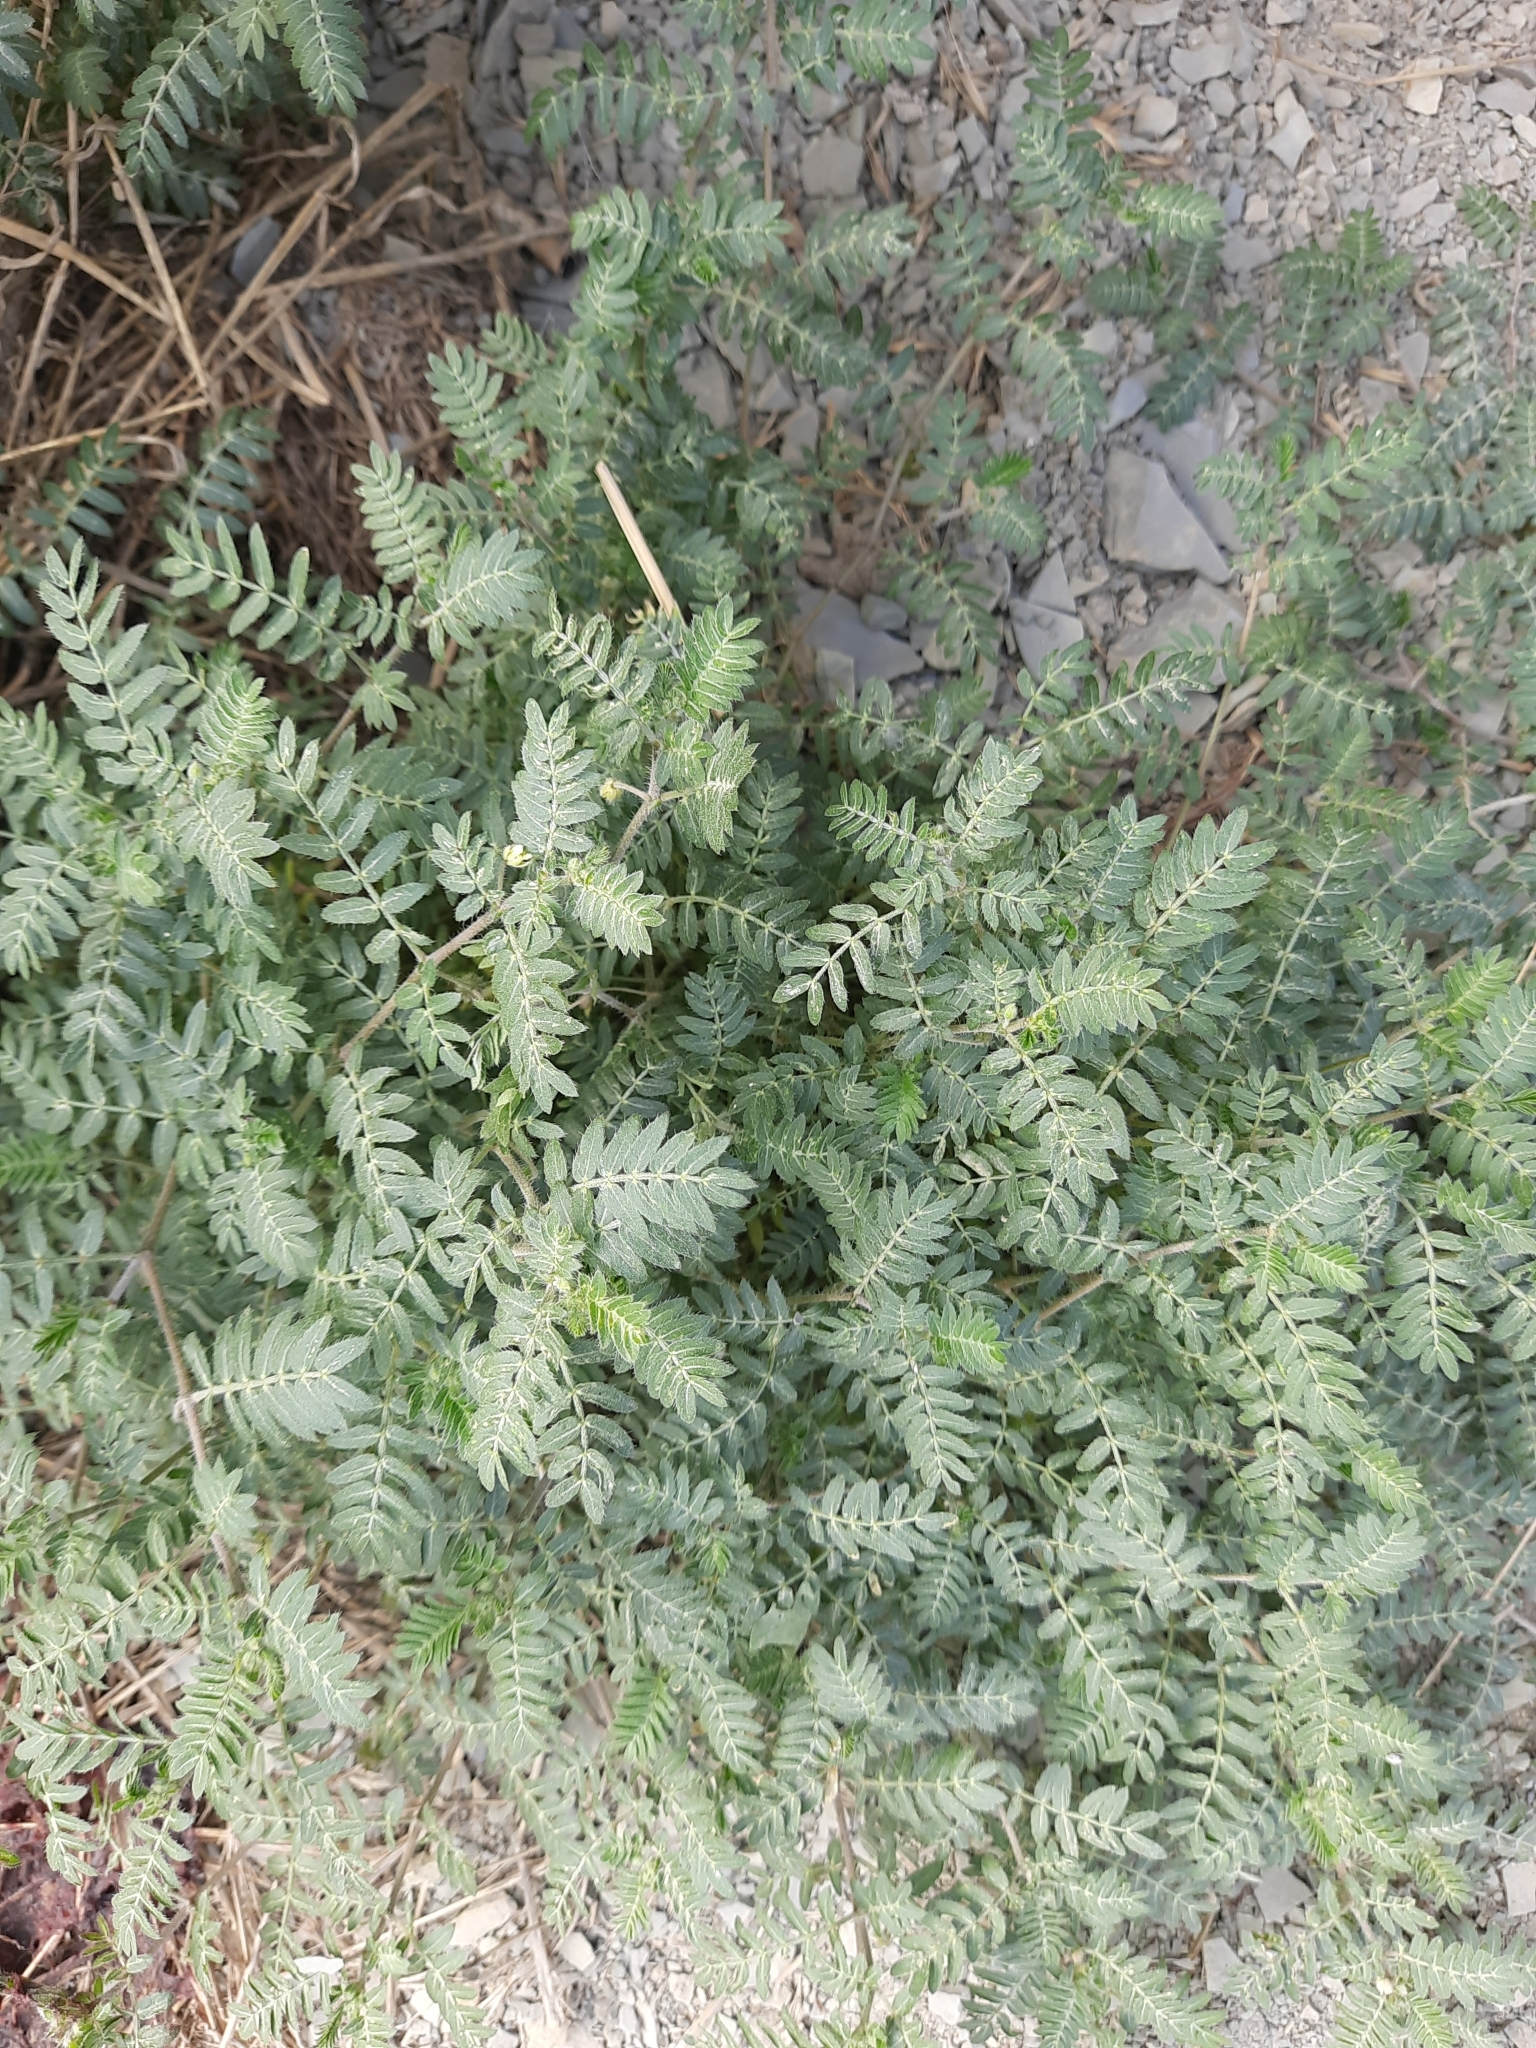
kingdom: Plantae
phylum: Tracheophyta
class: Magnoliopsida
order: Zygophyllales
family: Zygophyllaceae
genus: Tribulus
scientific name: Tribulus terrestris
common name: Puncturevine
